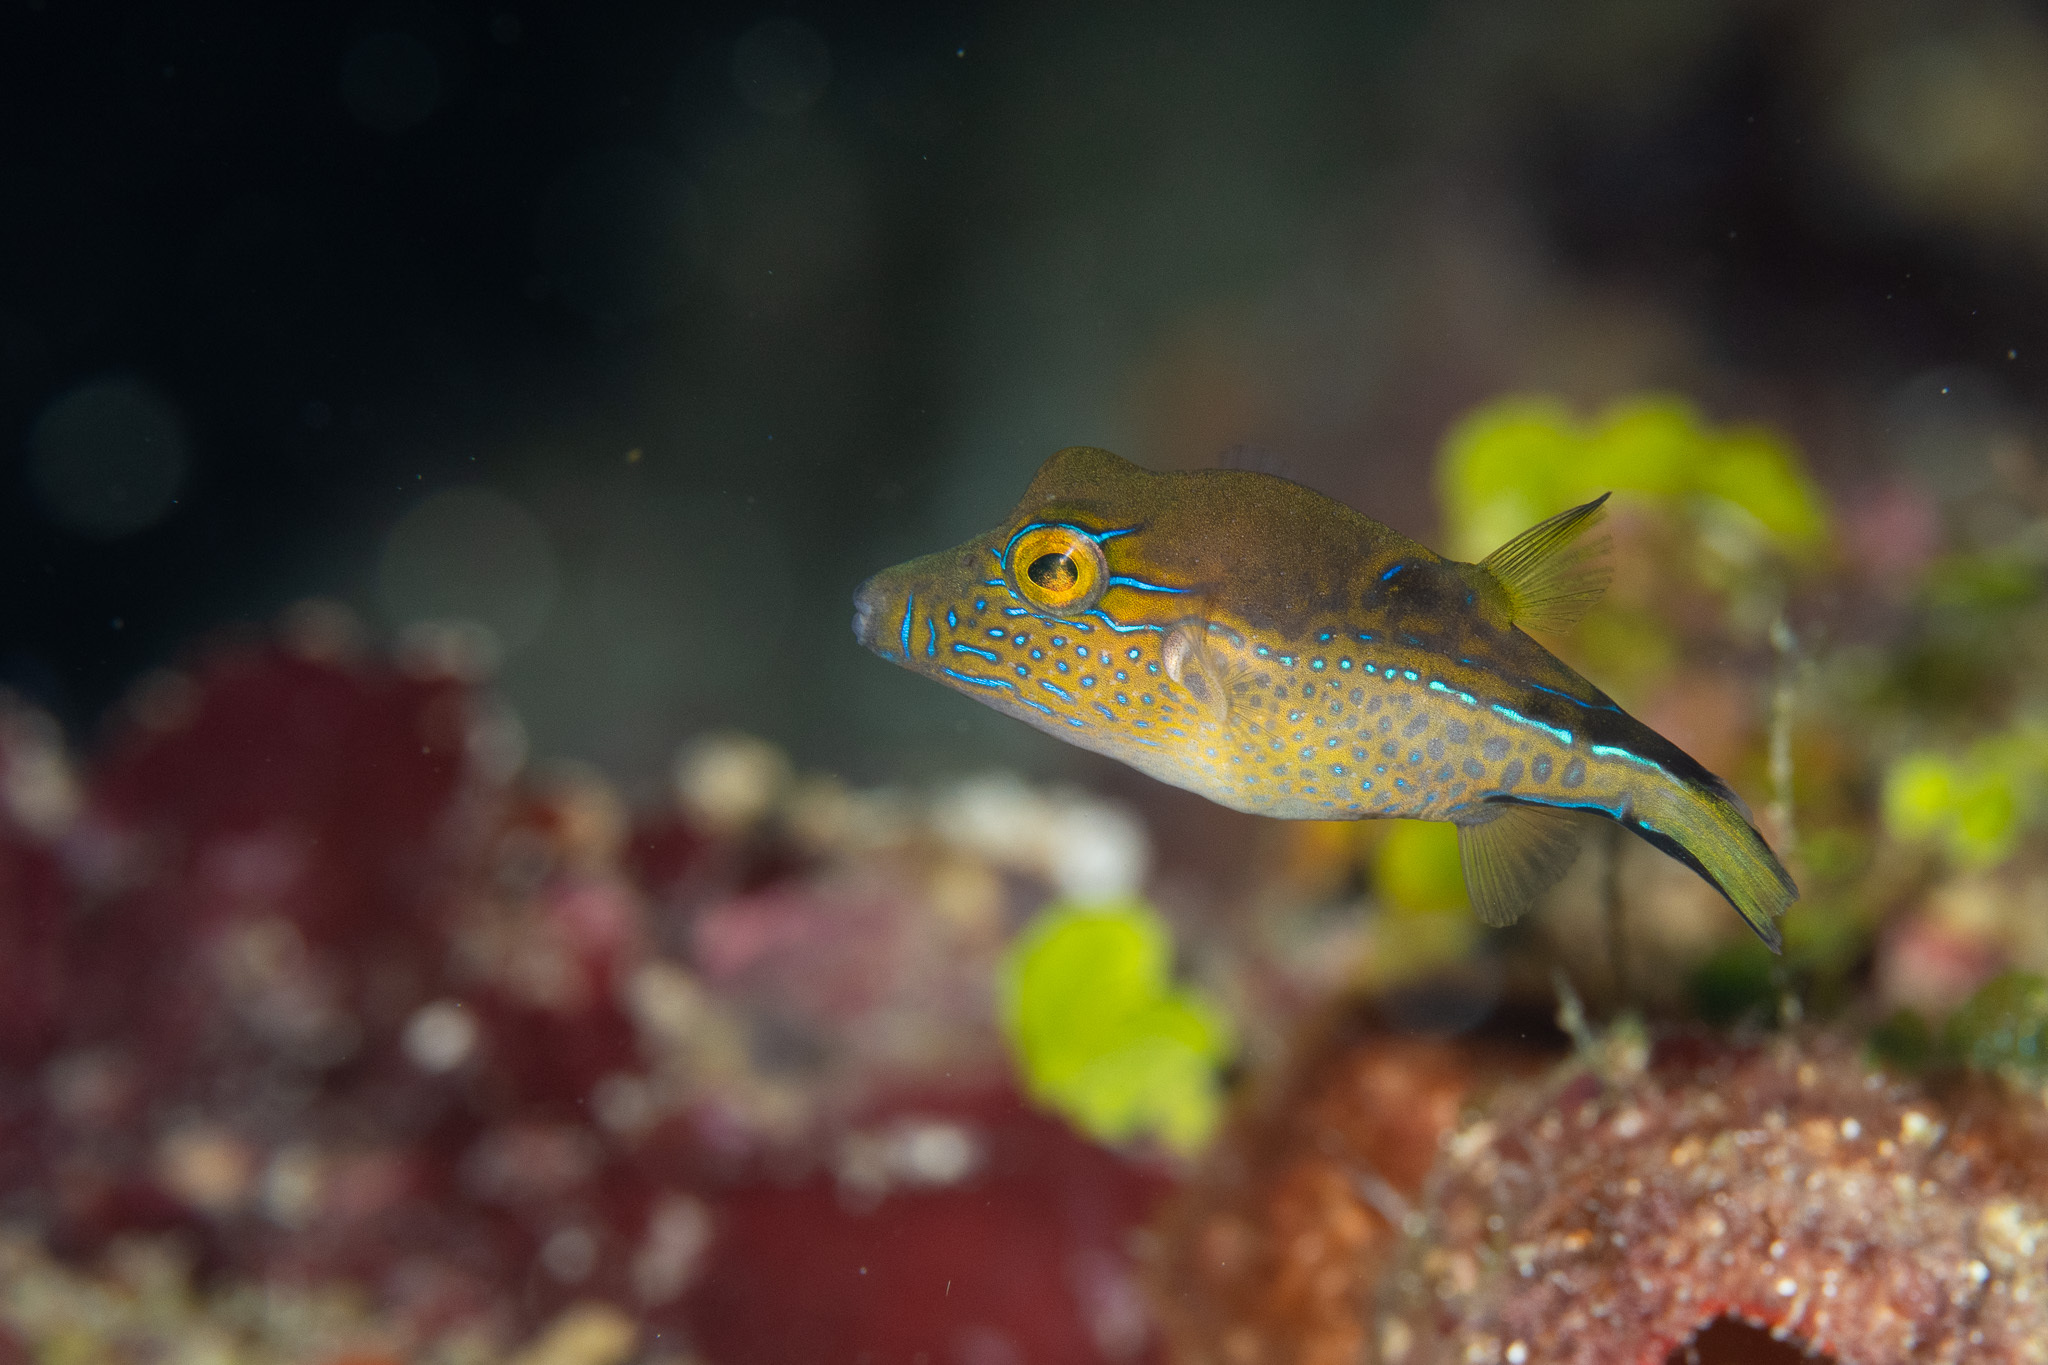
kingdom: Animalia
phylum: Chordata
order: Tetraodontiformes
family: Tetraodontidae
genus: Canthigaster
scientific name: Canthigaster rostrata
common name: Caribbean sharpnose-puffer
